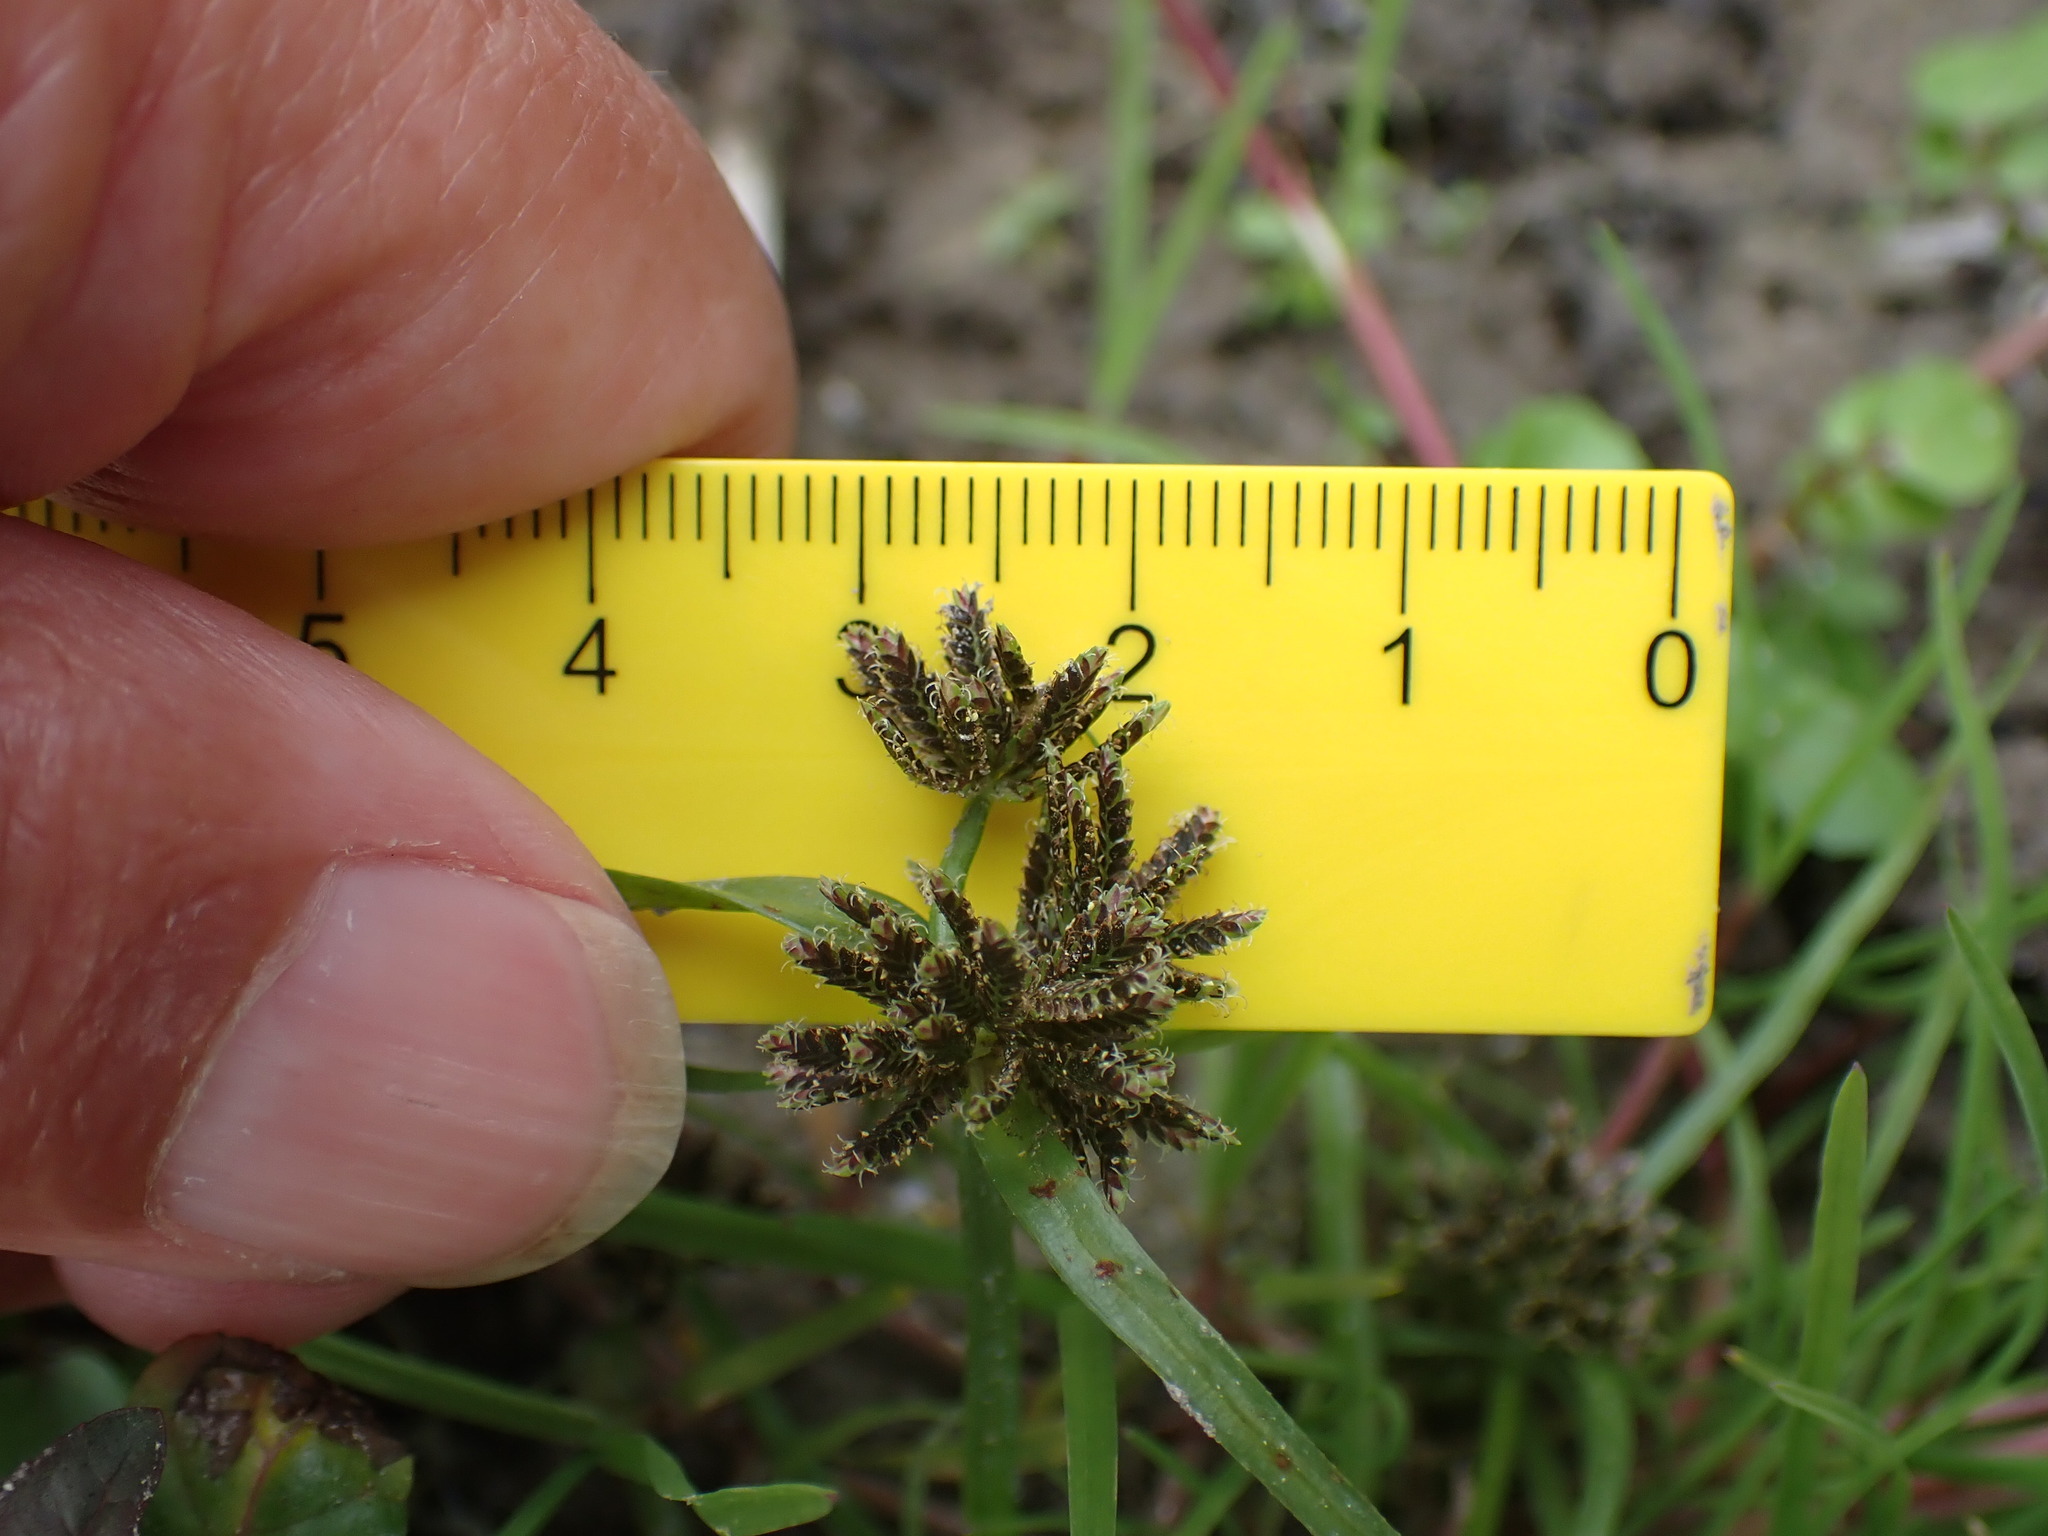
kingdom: Plantae
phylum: Tracheophyta
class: Liliopsida
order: Poales
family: Cyperaceae
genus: Cyperus
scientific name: Cyperus fuscus
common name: Brown galingale
